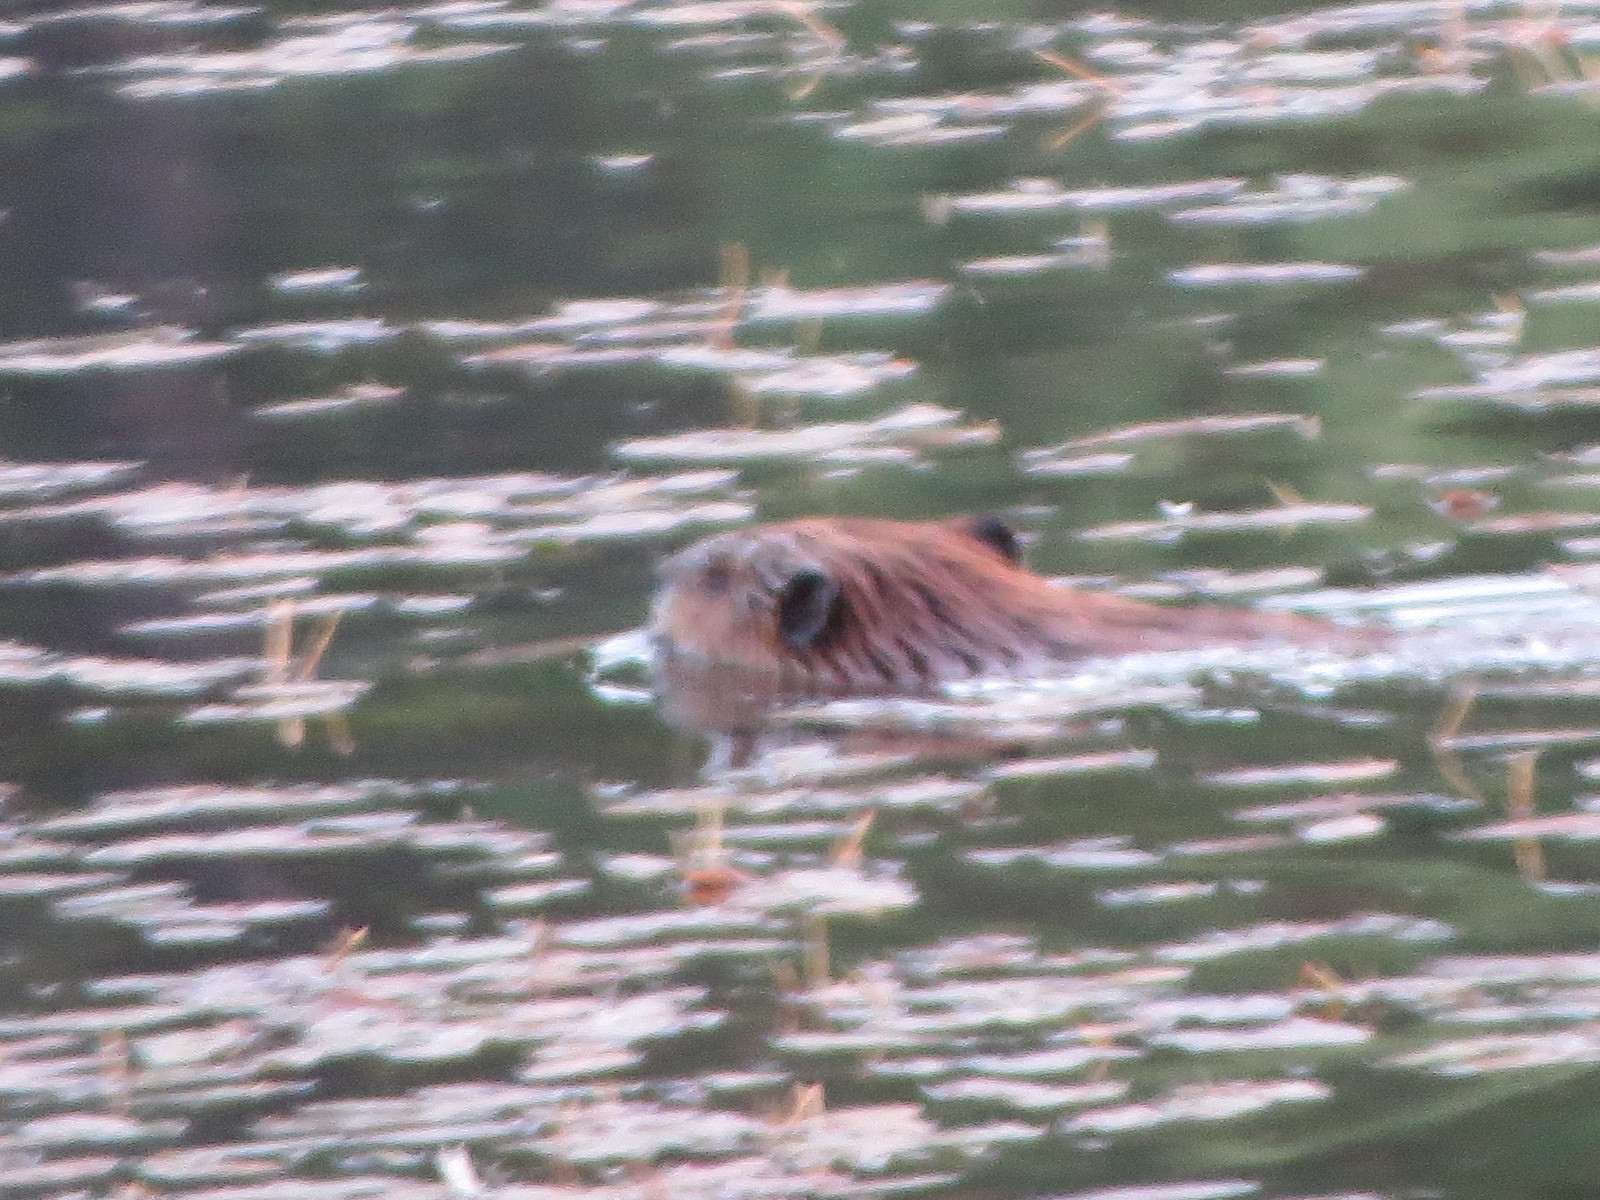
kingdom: Animalia
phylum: Chordata
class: Mammalia
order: Rodentia
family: Castoridae
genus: Castor
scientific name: Castor canadensis
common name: American beaver
